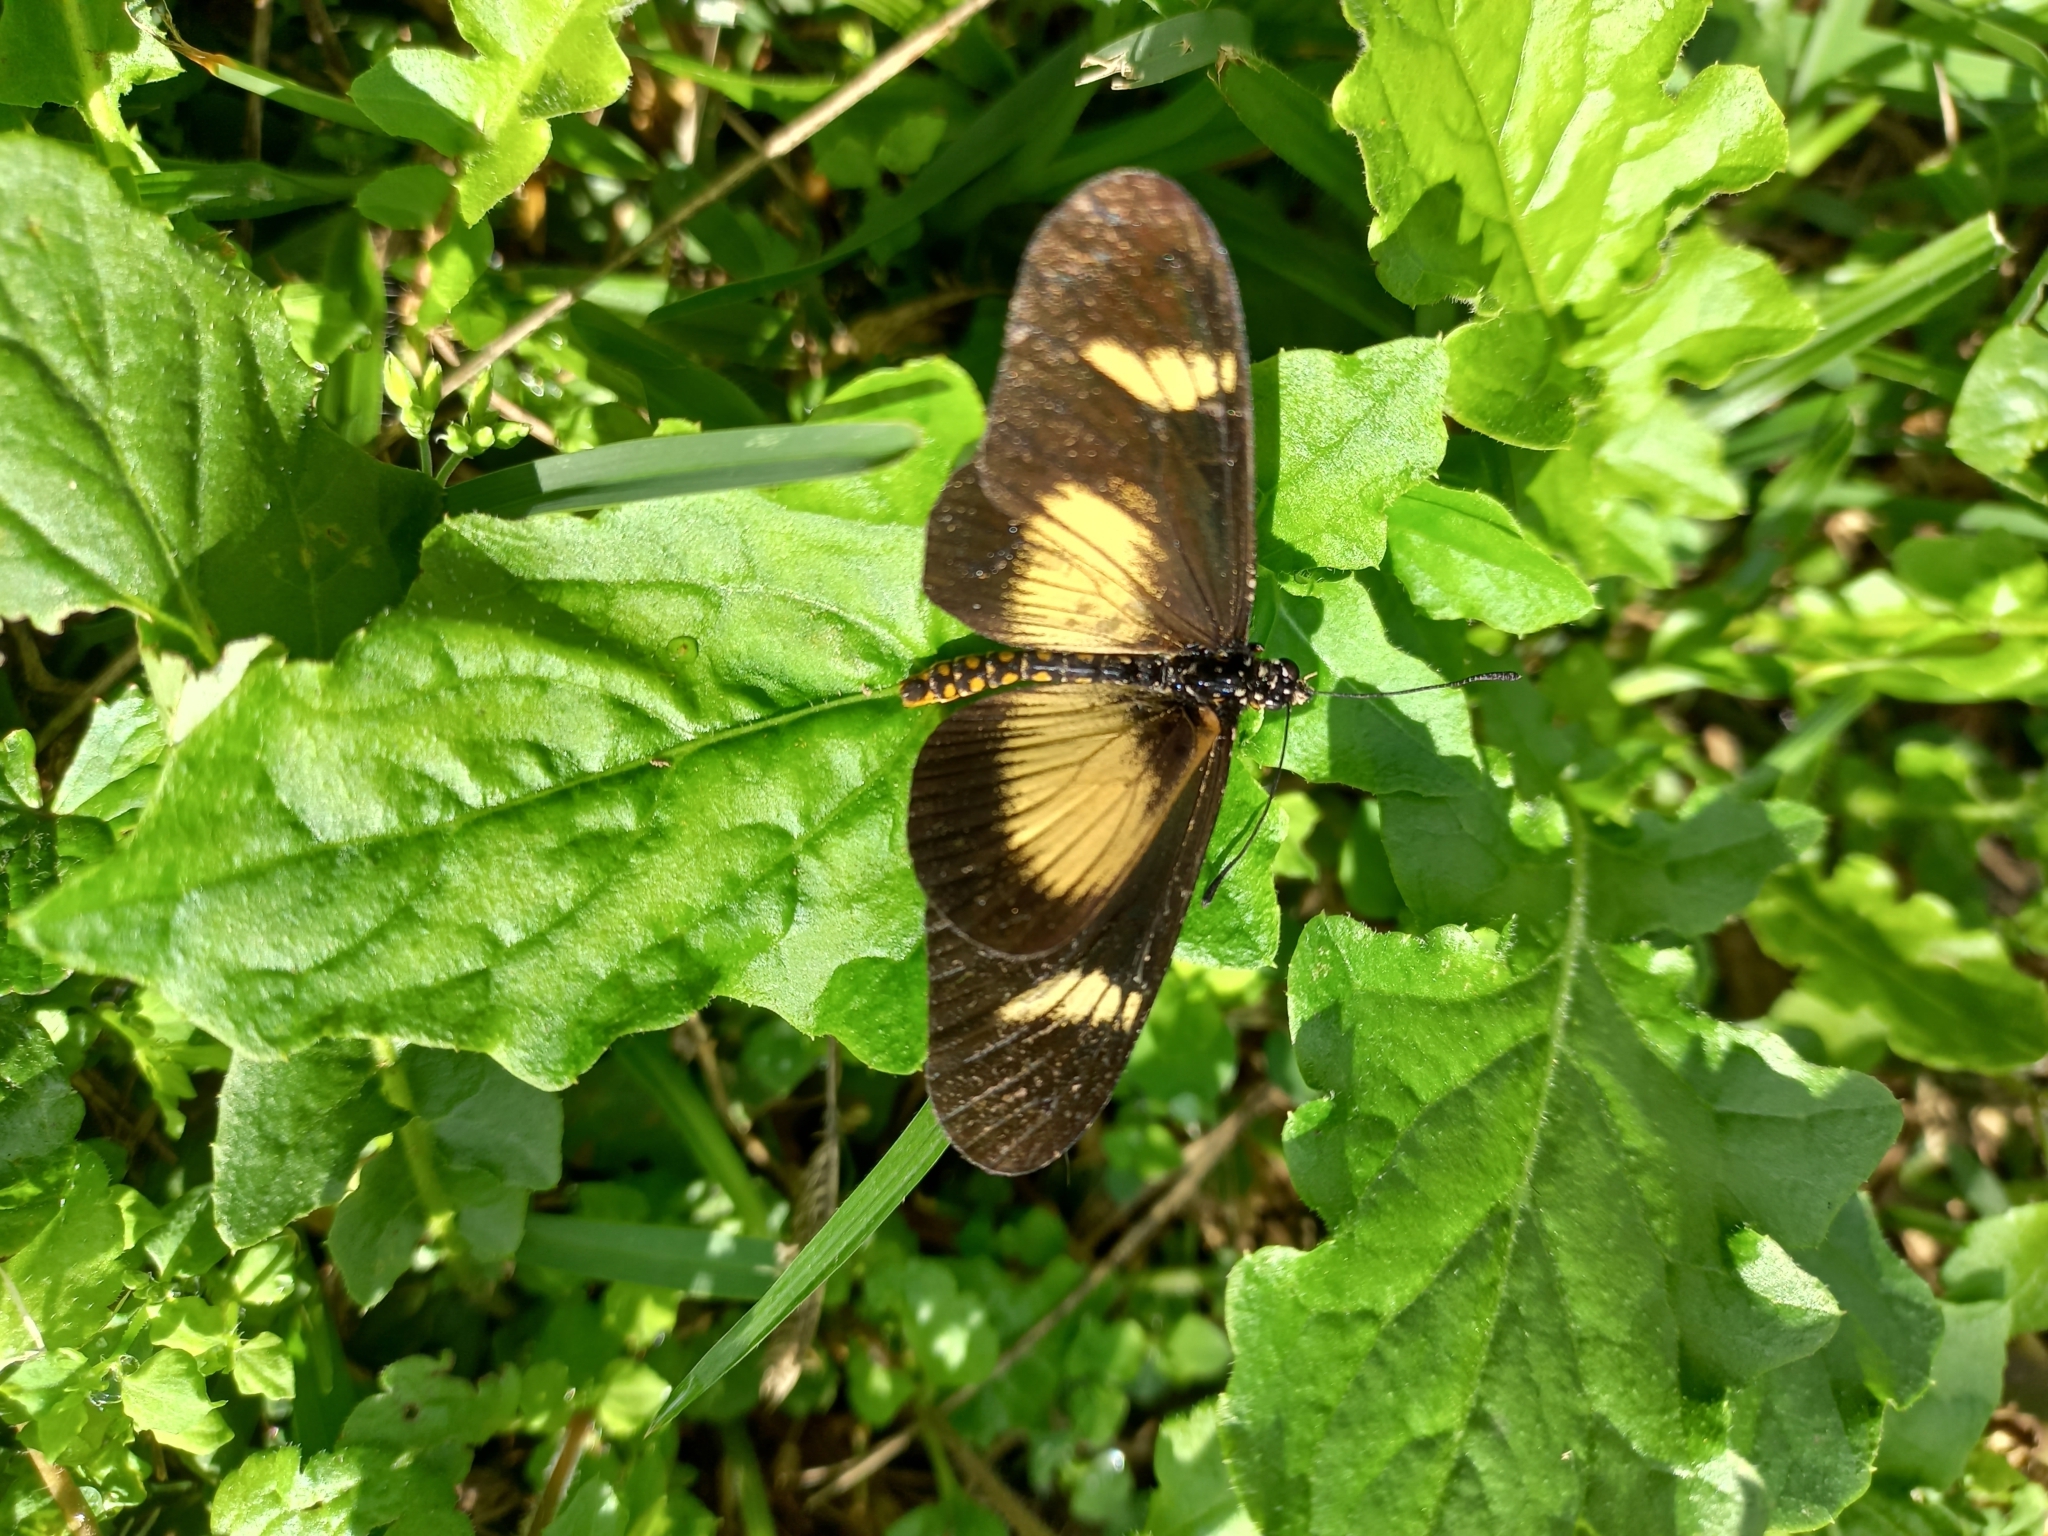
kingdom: Animalia
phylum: Arthropoda
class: Insecta
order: Lepidoptera
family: Nymphalidae
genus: Acraea
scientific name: Acraea esebria
